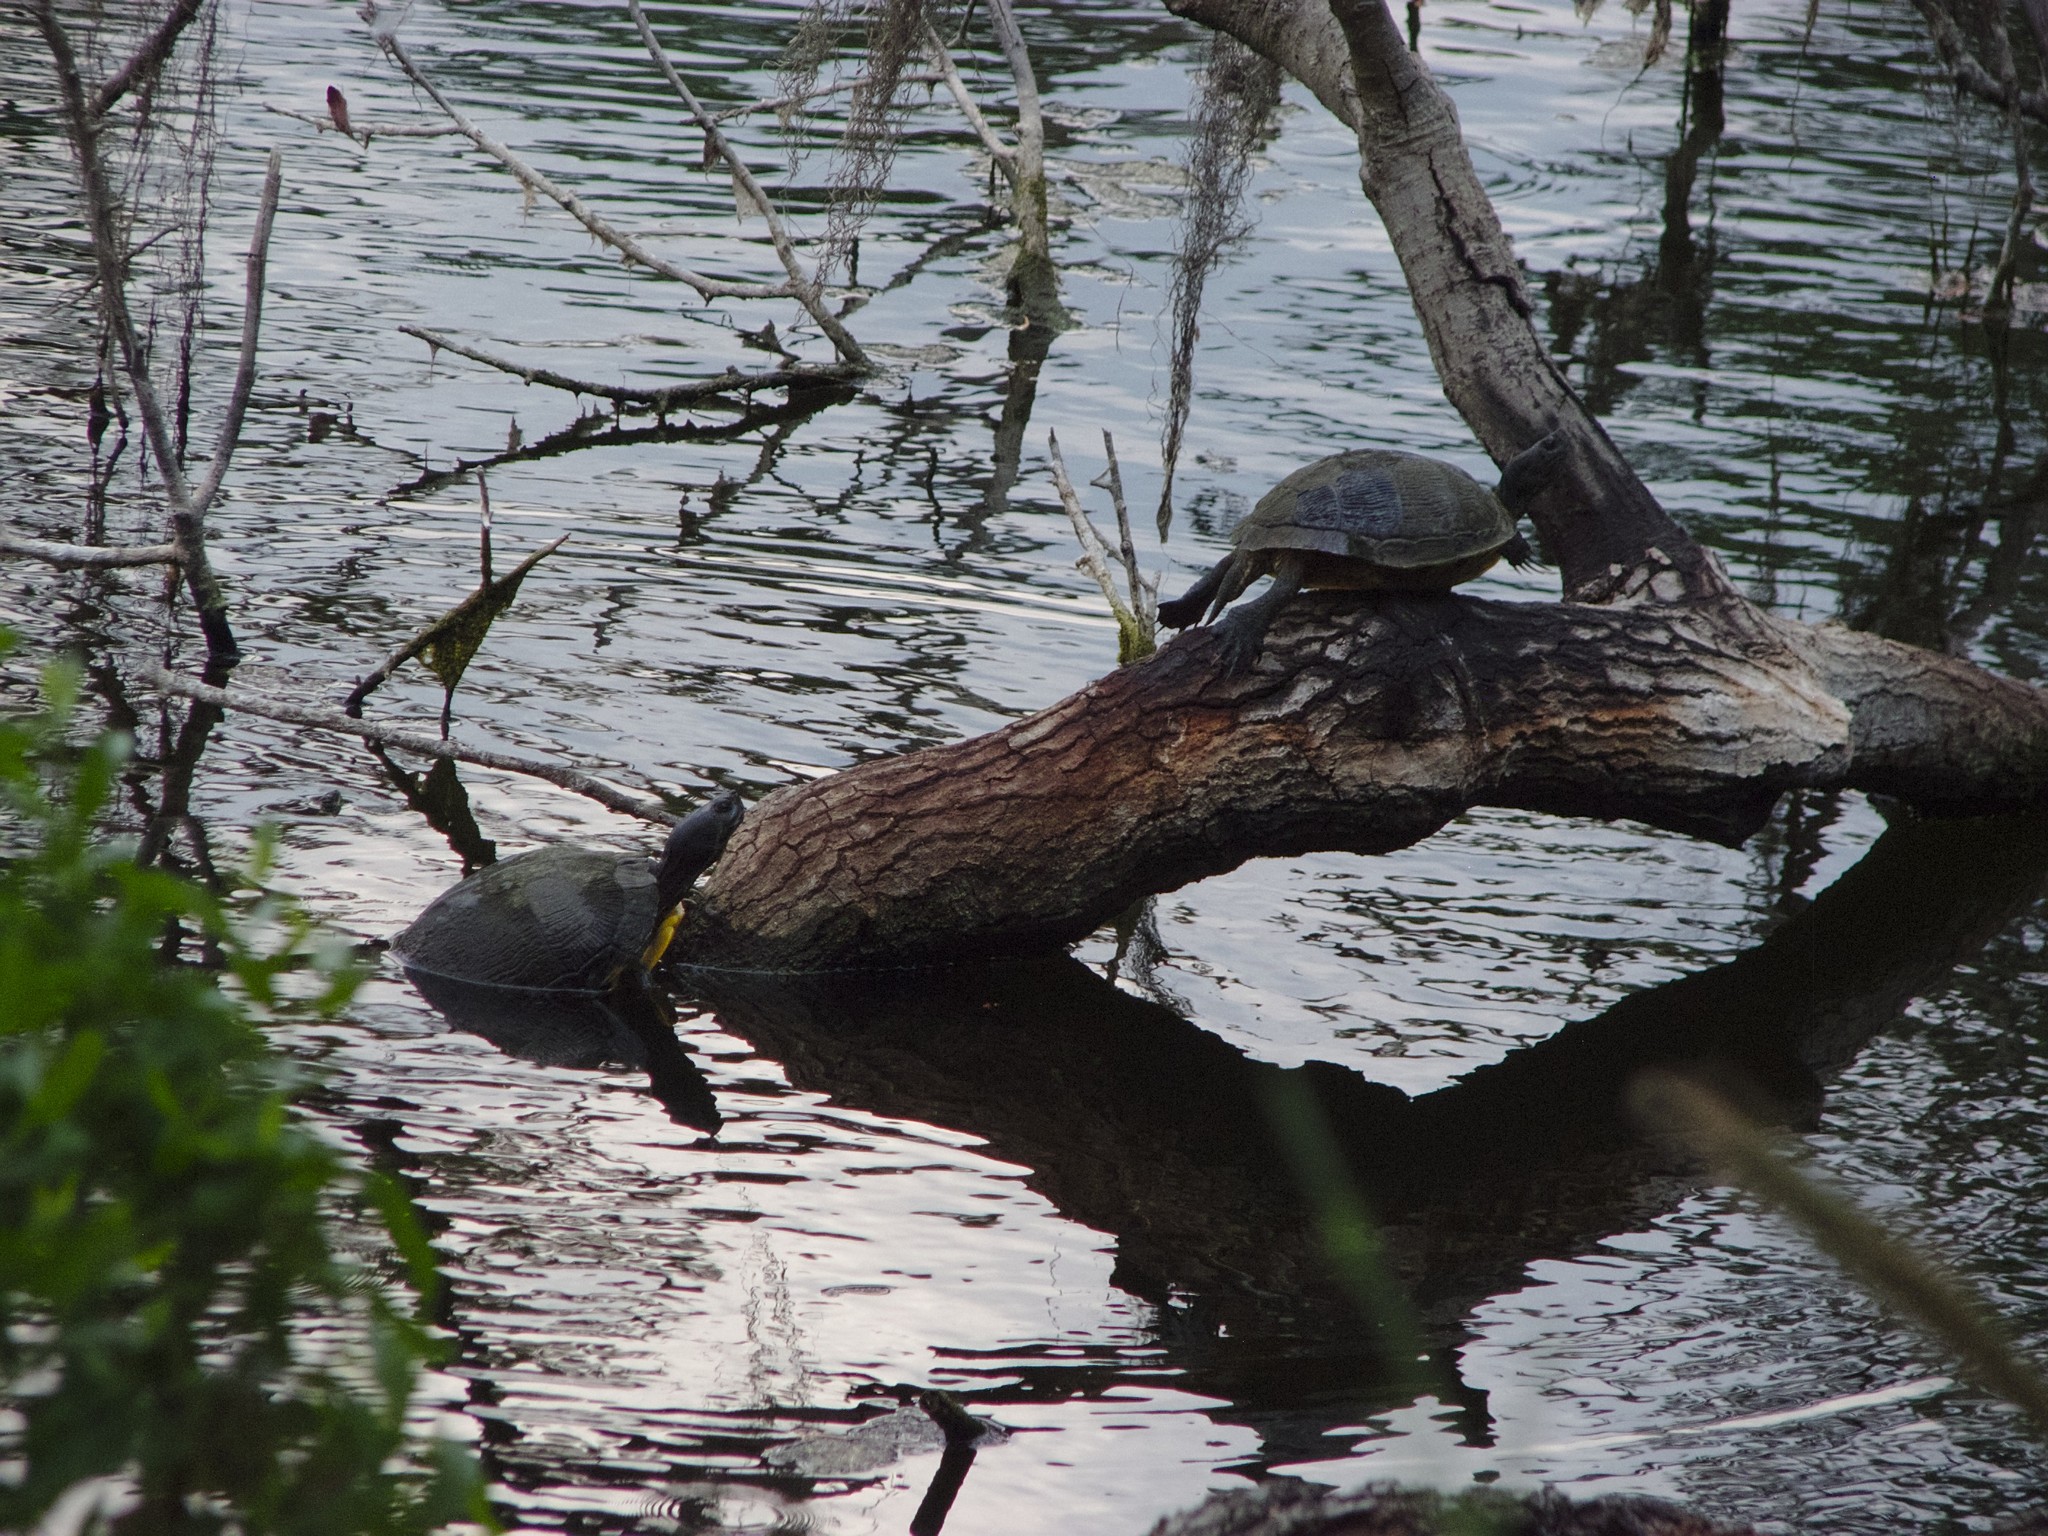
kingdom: Animalia
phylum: Chordata
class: Testudines
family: Emydidae
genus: Trachemys
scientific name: Trachemys scripta
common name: Slider
